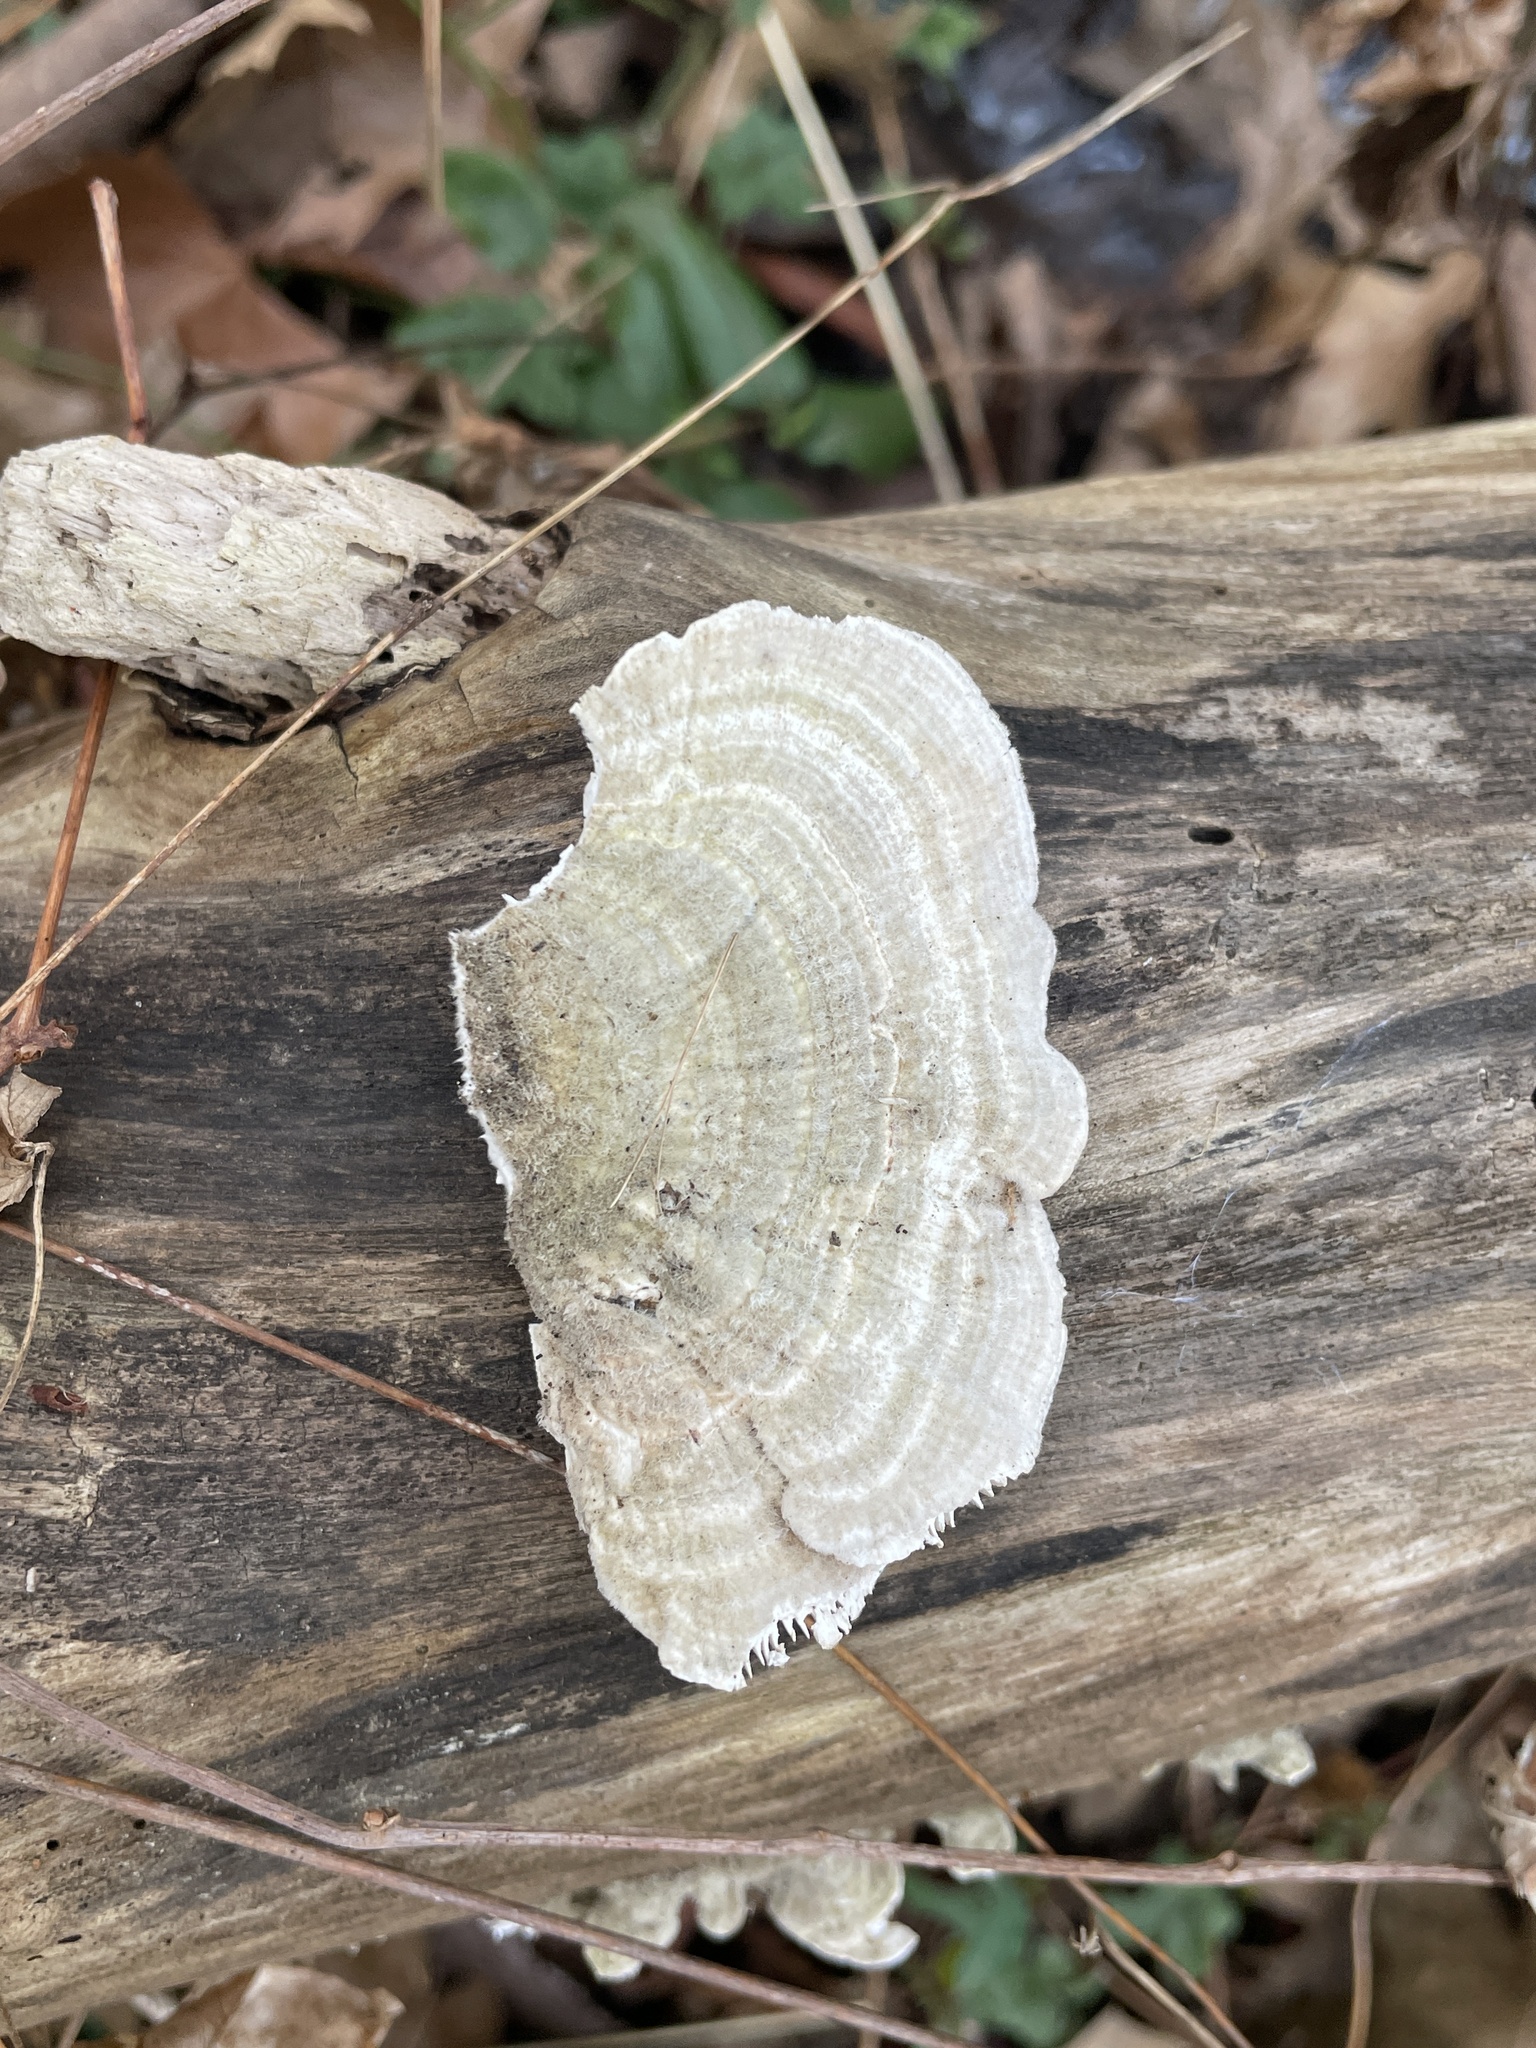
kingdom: Fungi
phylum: Basidiomycota
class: Agaricomycetes
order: Polyporales
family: Polyporaceae
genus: Lenzites
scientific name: Lenzites betulinus
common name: Birch mazegill
